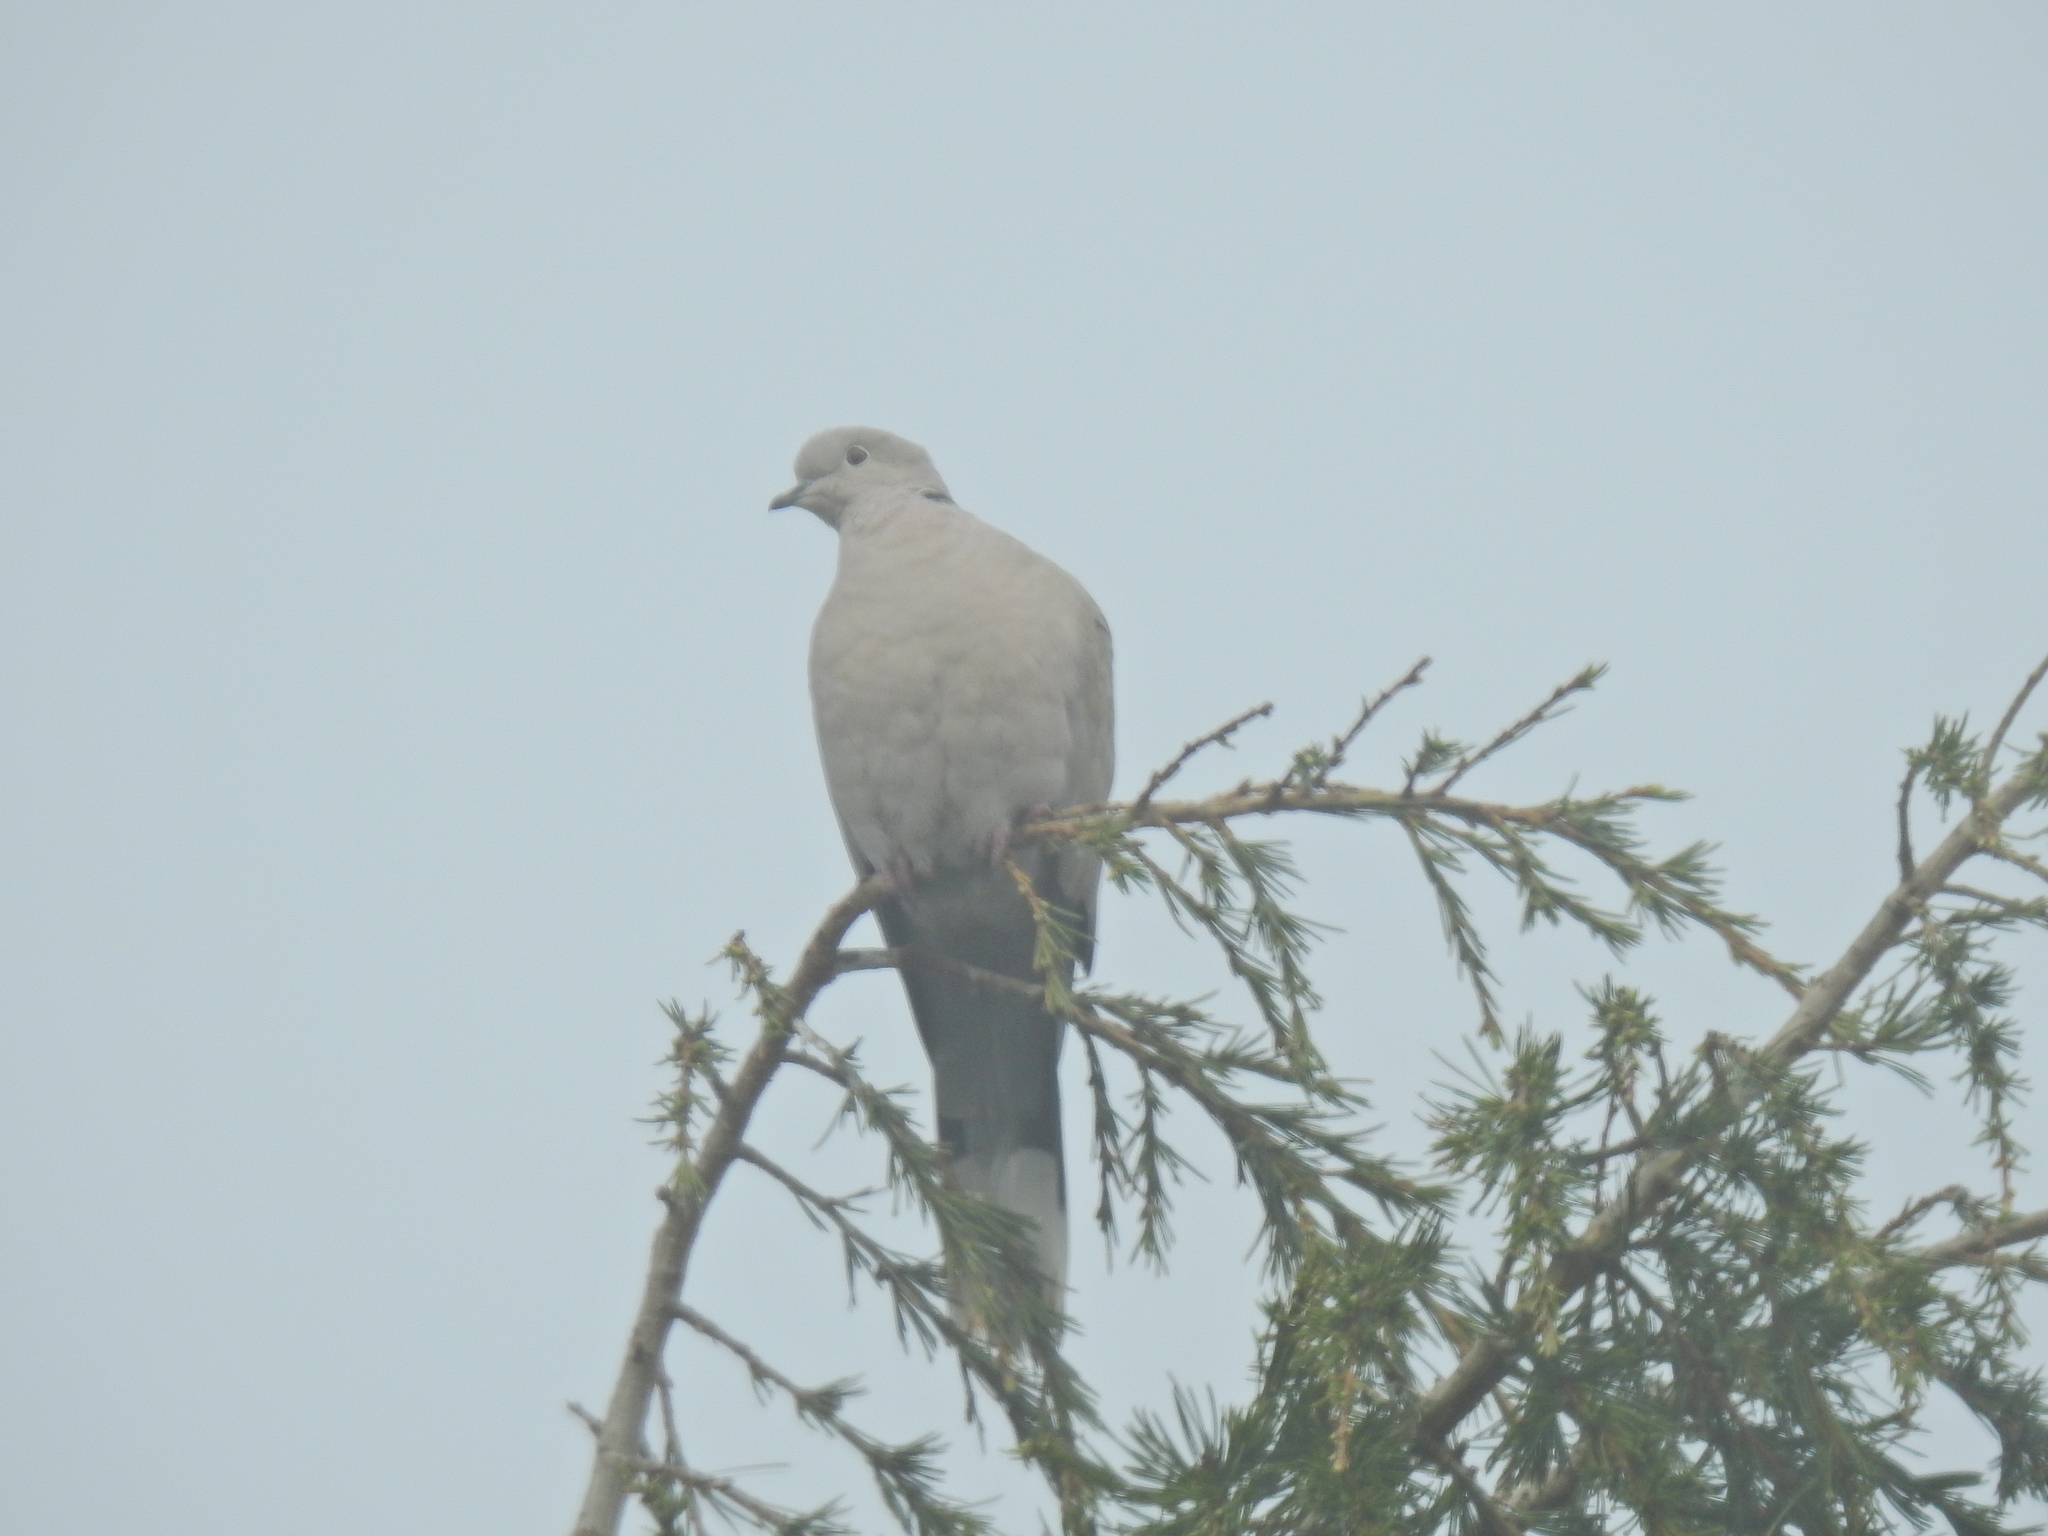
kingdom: Animalia
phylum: Chordata
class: Aves
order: Columbiformes
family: Columbidae
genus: Streptopelia
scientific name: Streptopelia decaocto
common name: Eurasian collared dove
